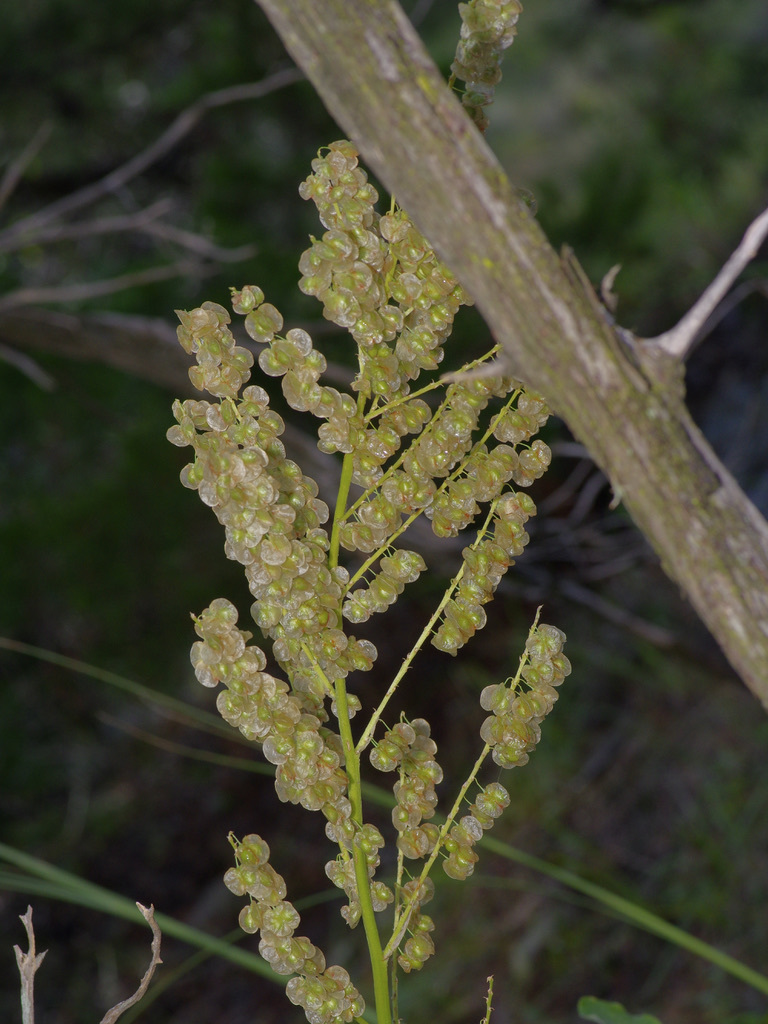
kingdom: Plantae
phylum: Tracheophyta
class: Liliopsida
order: Asparagales
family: Asparagaceae
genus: Nolina
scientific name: Nolina lindheimeriana
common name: Lindheimer's bear-grass
